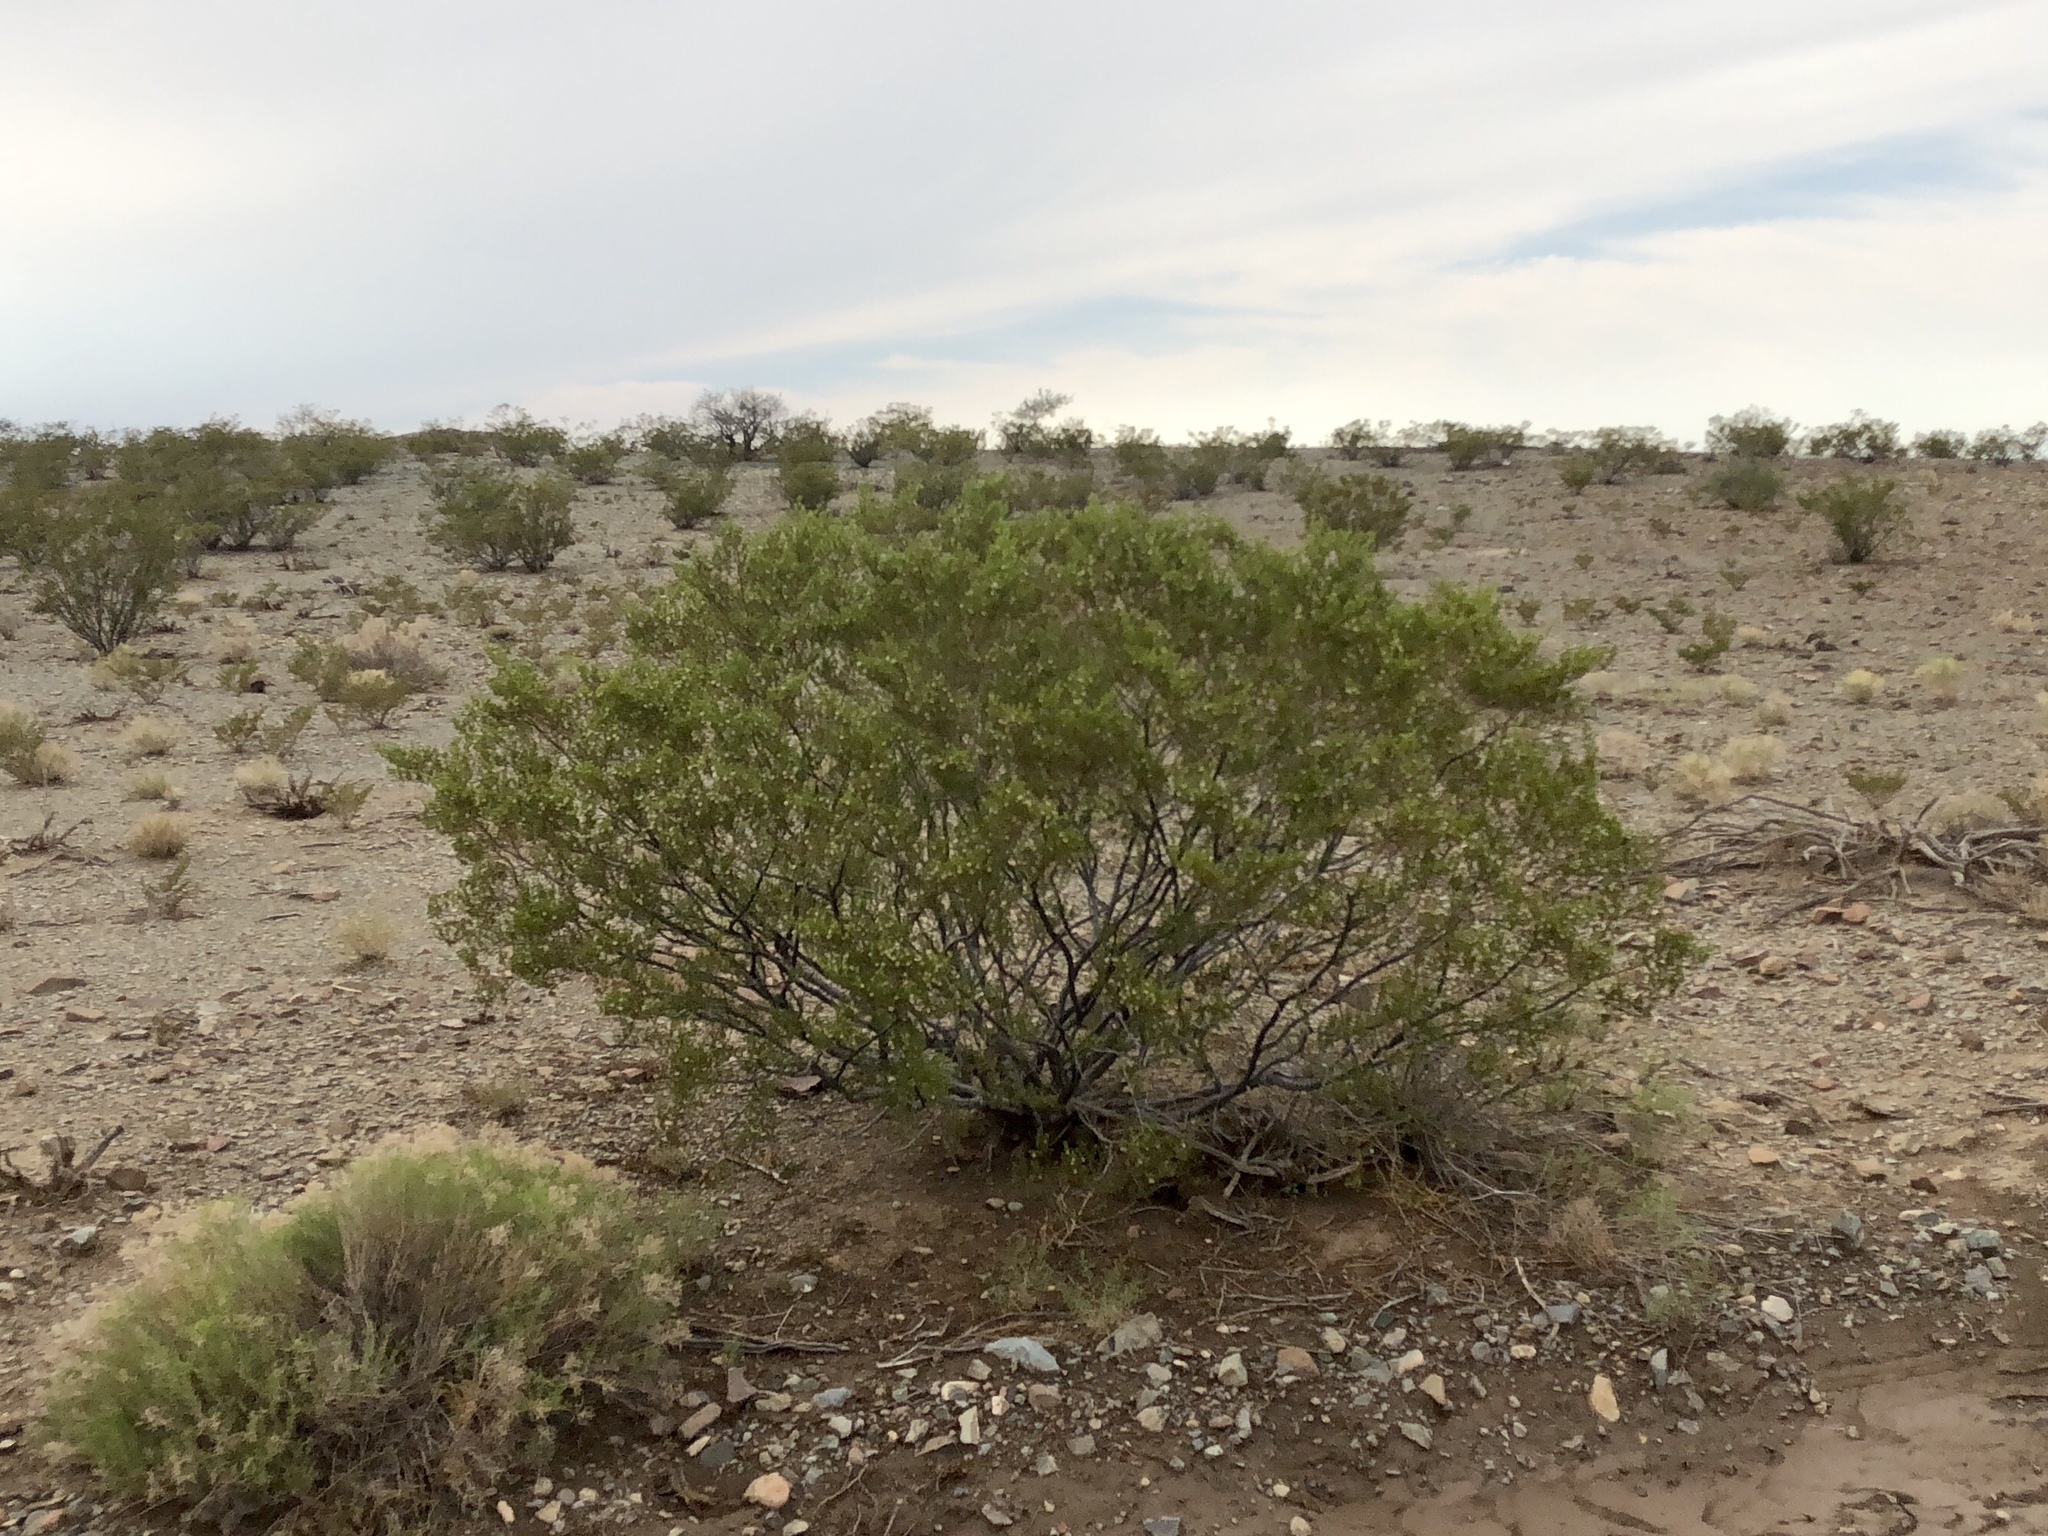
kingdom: Plantae
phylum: Tracheophyta
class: Magnoliopsida
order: Zygophyllales
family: Zygophyllaceae
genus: Larrea
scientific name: Larrea tridentata
